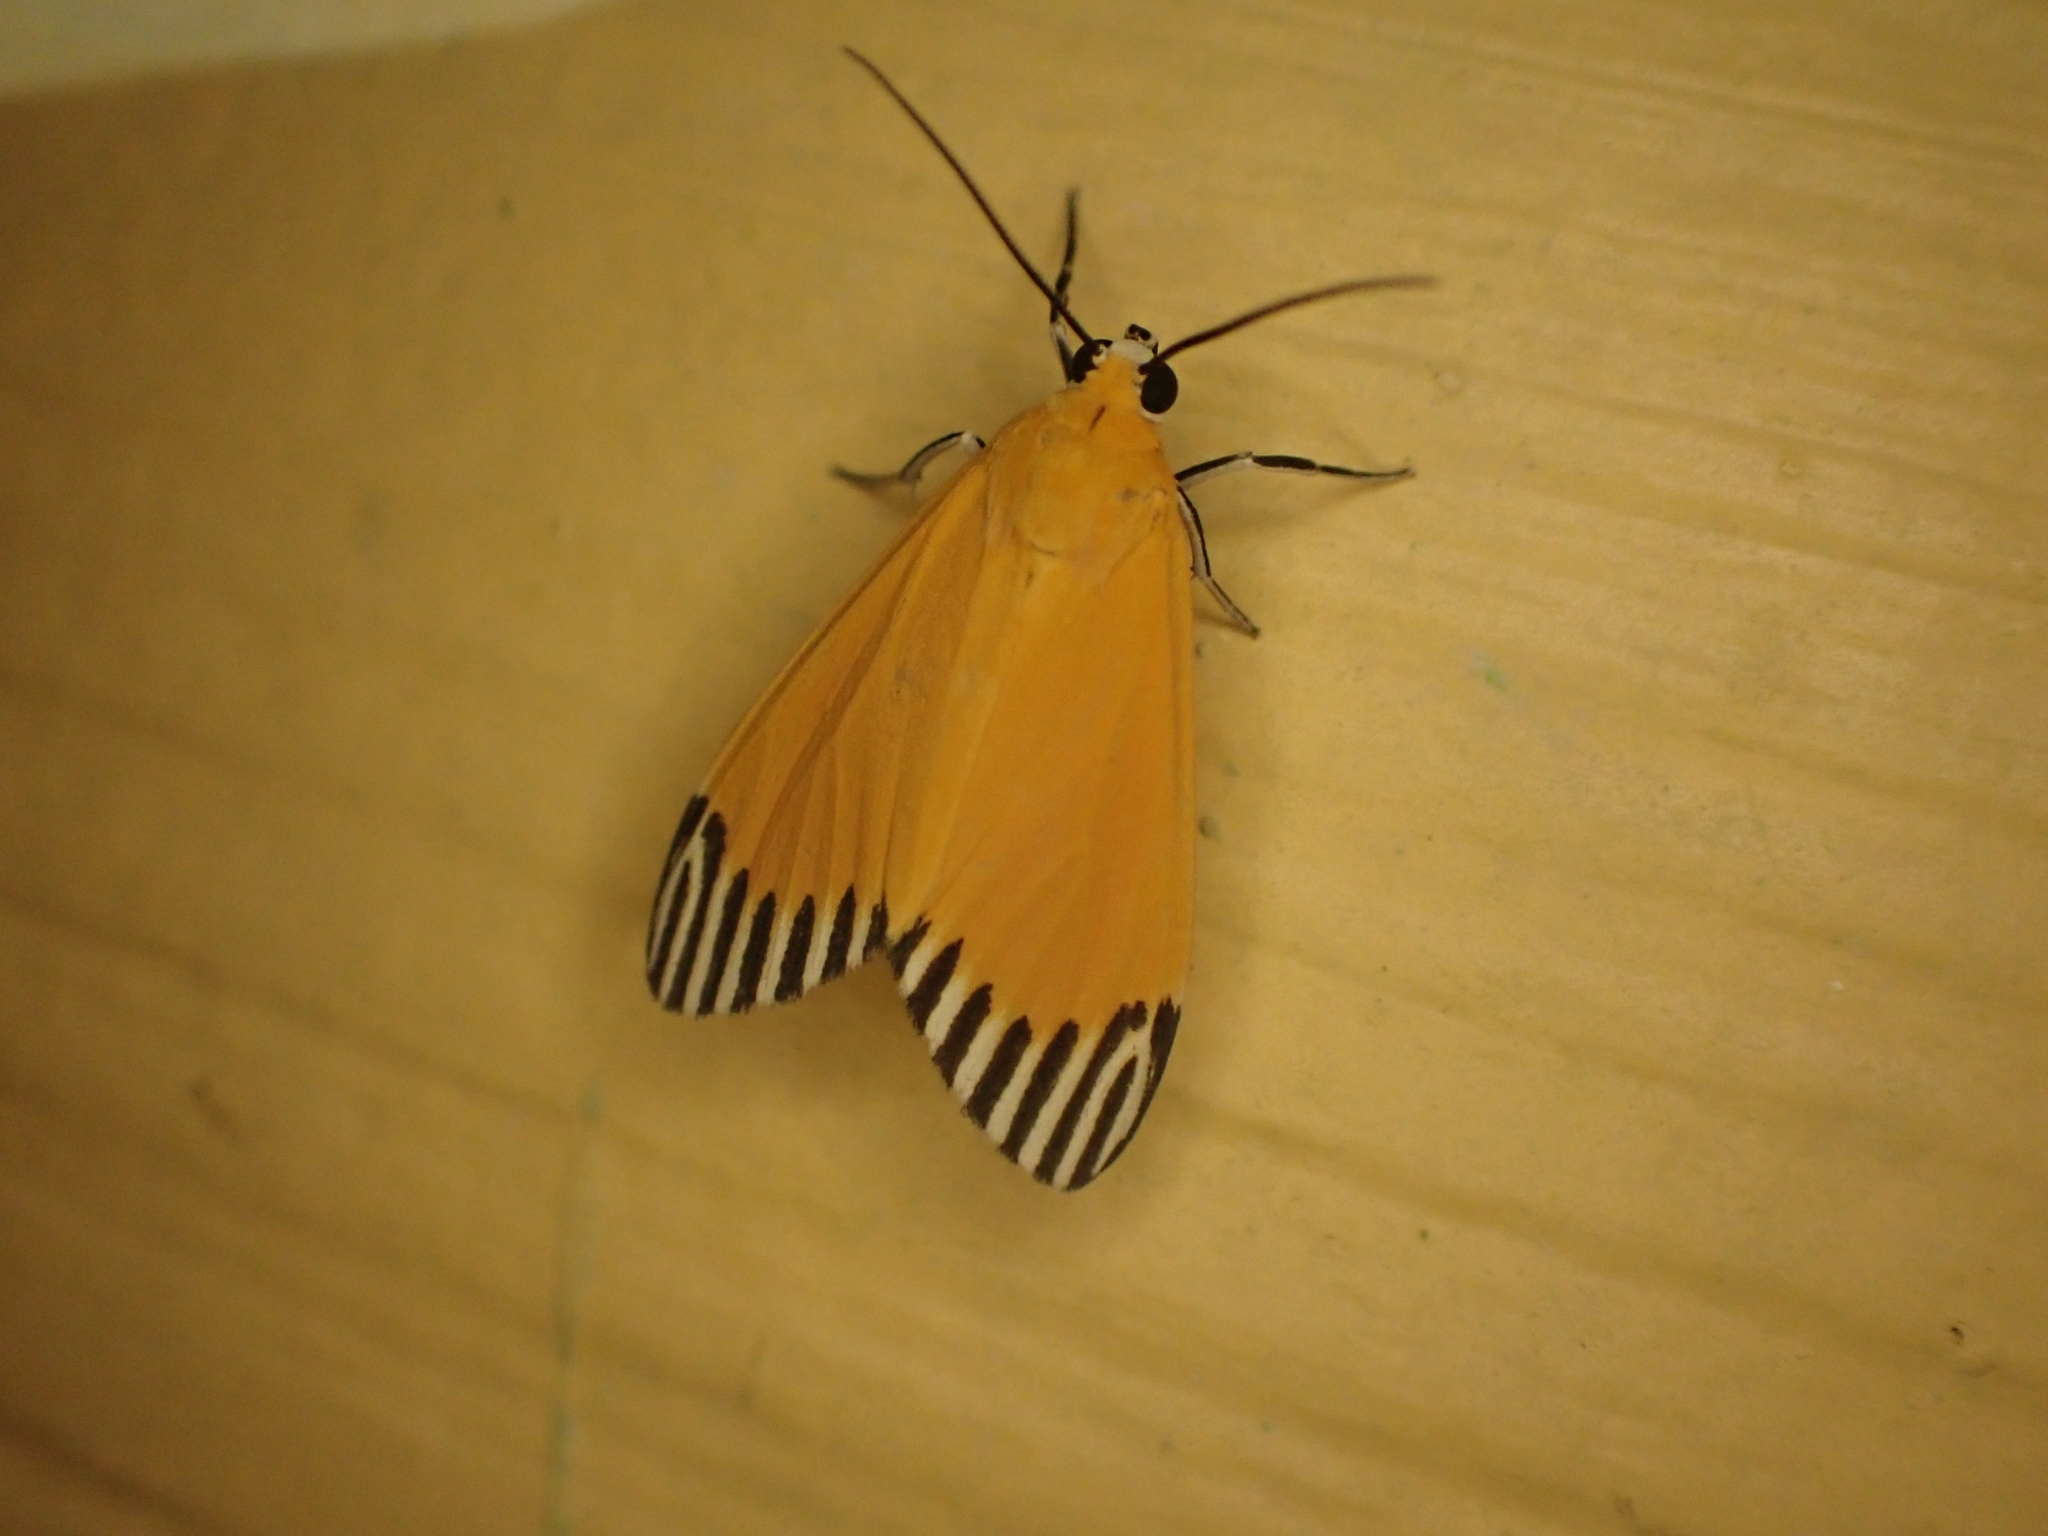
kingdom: Animalia
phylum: Arthropoda
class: Insecta
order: Lepidoptera
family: Erebidae
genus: Uranophora
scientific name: Uranophora walkeri
